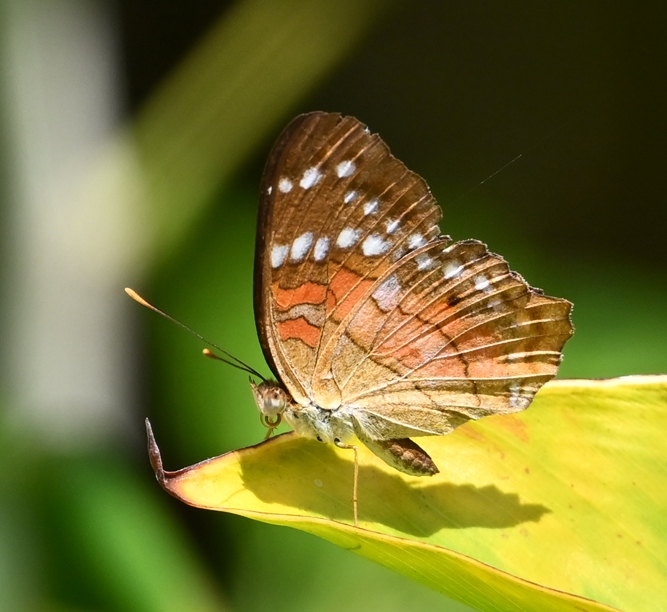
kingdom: Animalia
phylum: Arthropoda
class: Insecta
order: Lepidoptera
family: Nymphalidae
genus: Anartia
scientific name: Anartia amathea
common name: Red peacock
